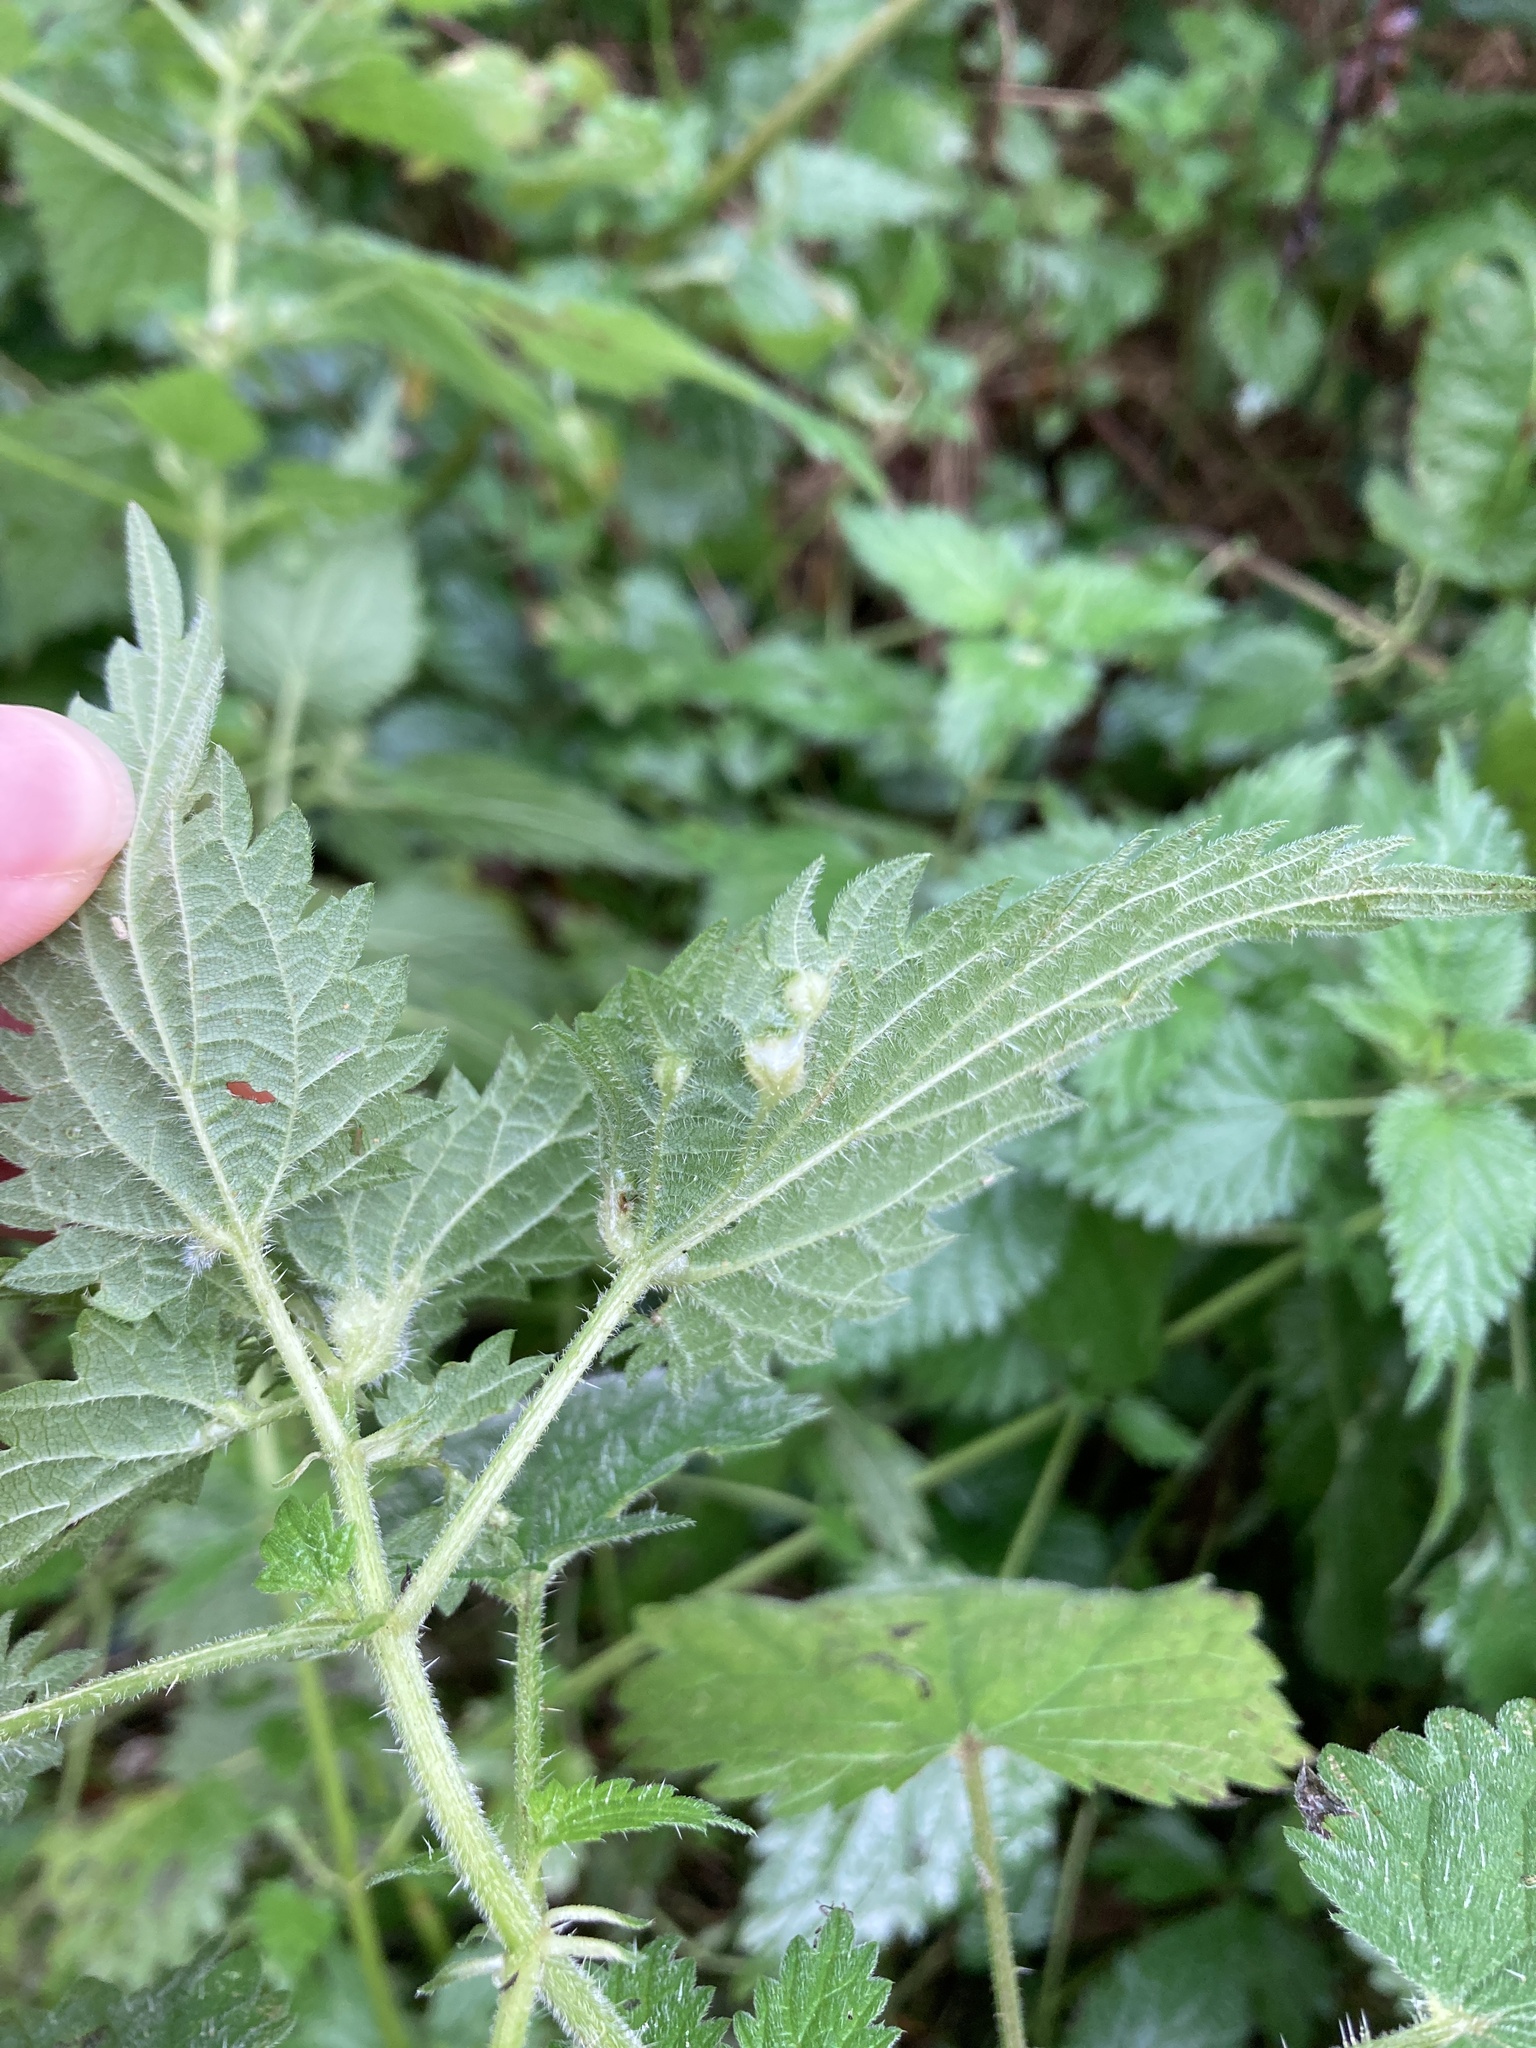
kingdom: Animalia
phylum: Arthropoda
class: Insecta
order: Diptera
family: Cecidomyiidae
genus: Dasineura
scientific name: Dasineura urticae
